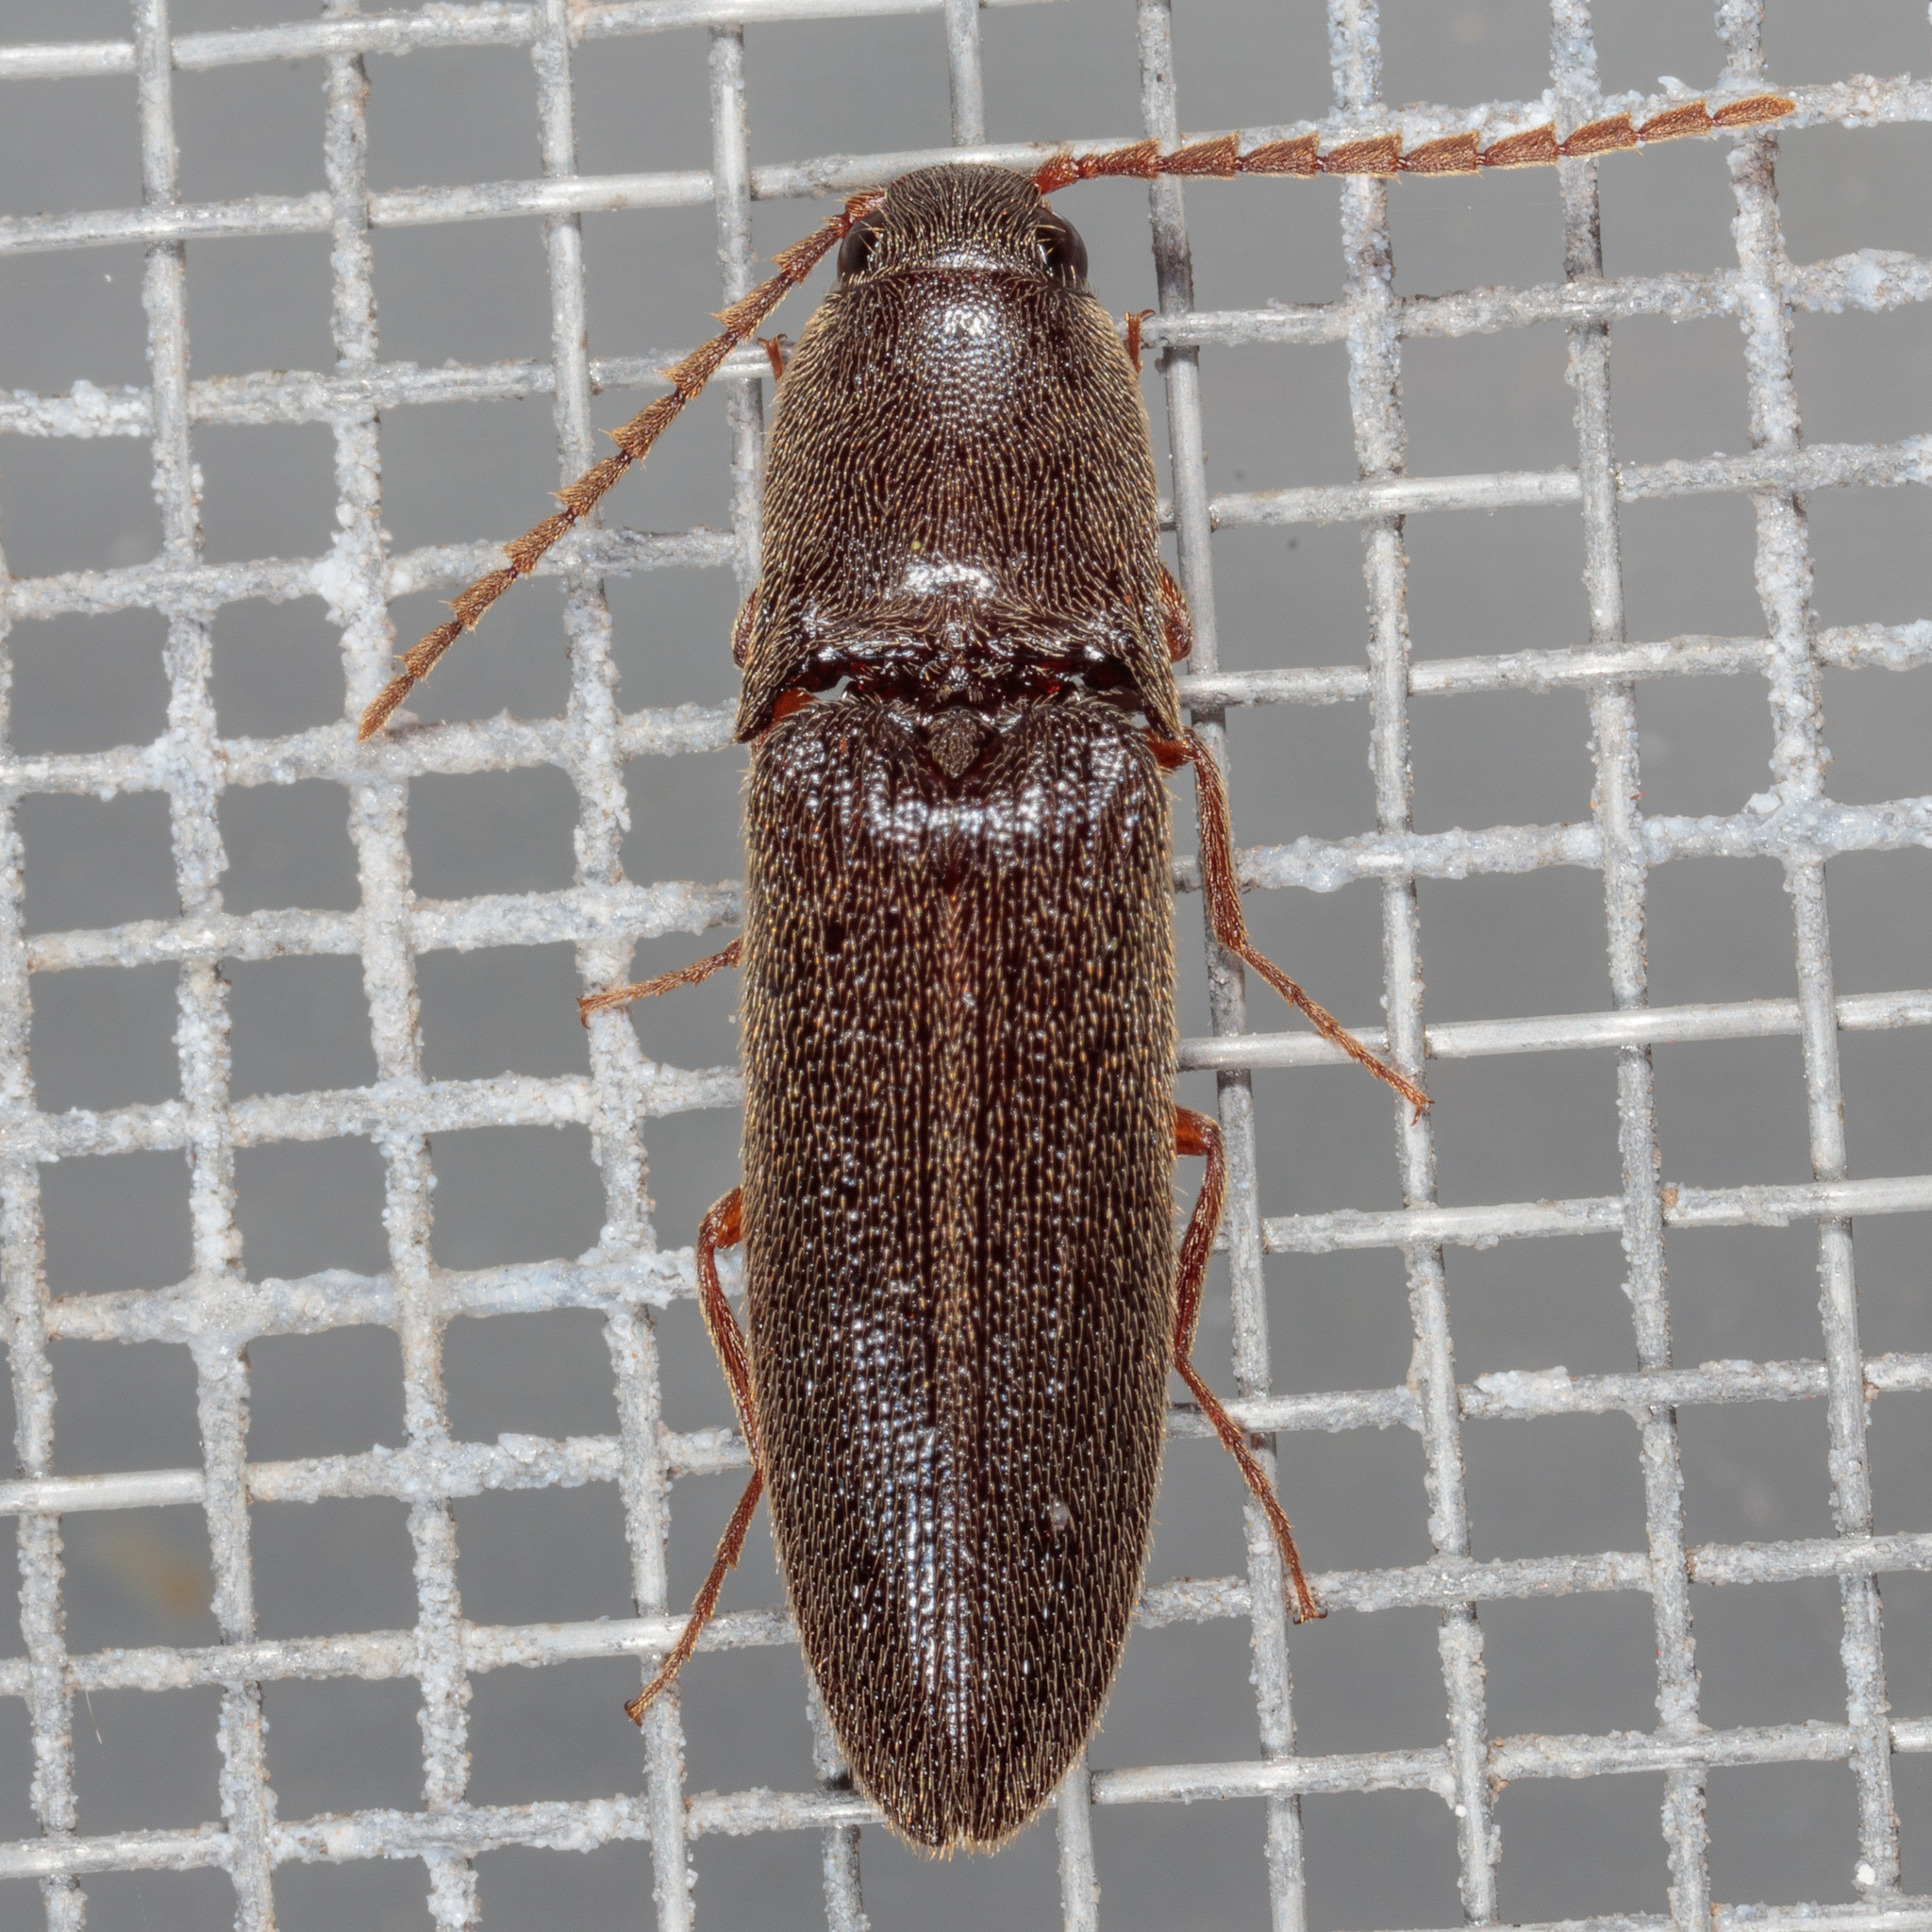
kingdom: Animalia
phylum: Arthropoda
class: Insecta
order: Coleoptera
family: Elateridae
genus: Megapenthes
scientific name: Megapenthes insignis
